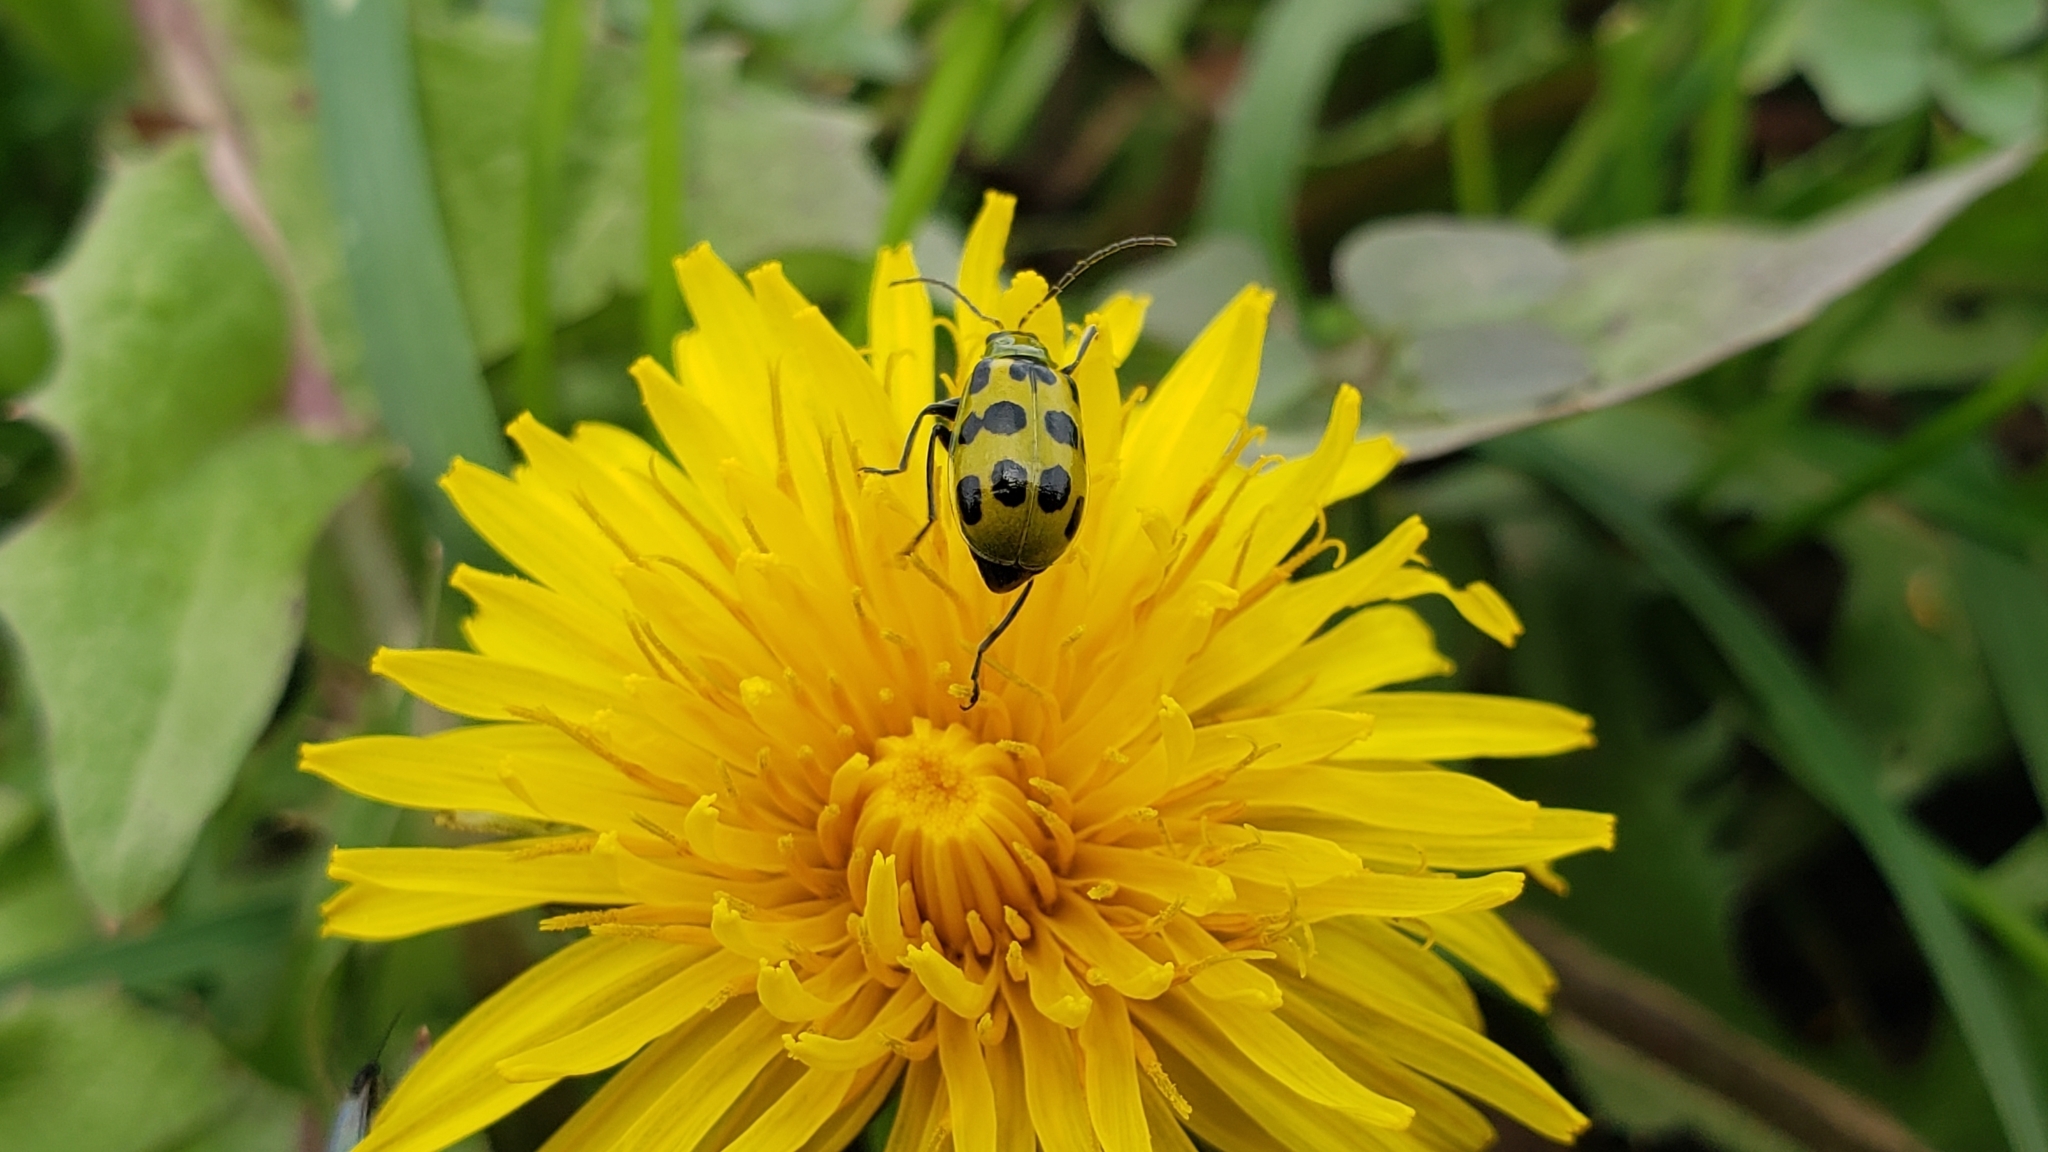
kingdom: Animalia
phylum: Arthropoda
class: Insecta
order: Coleoptera
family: Chrysomelidae
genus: Diabrotica
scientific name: Diabrotica undecimpunctata
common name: Spotted cucumber beetle
